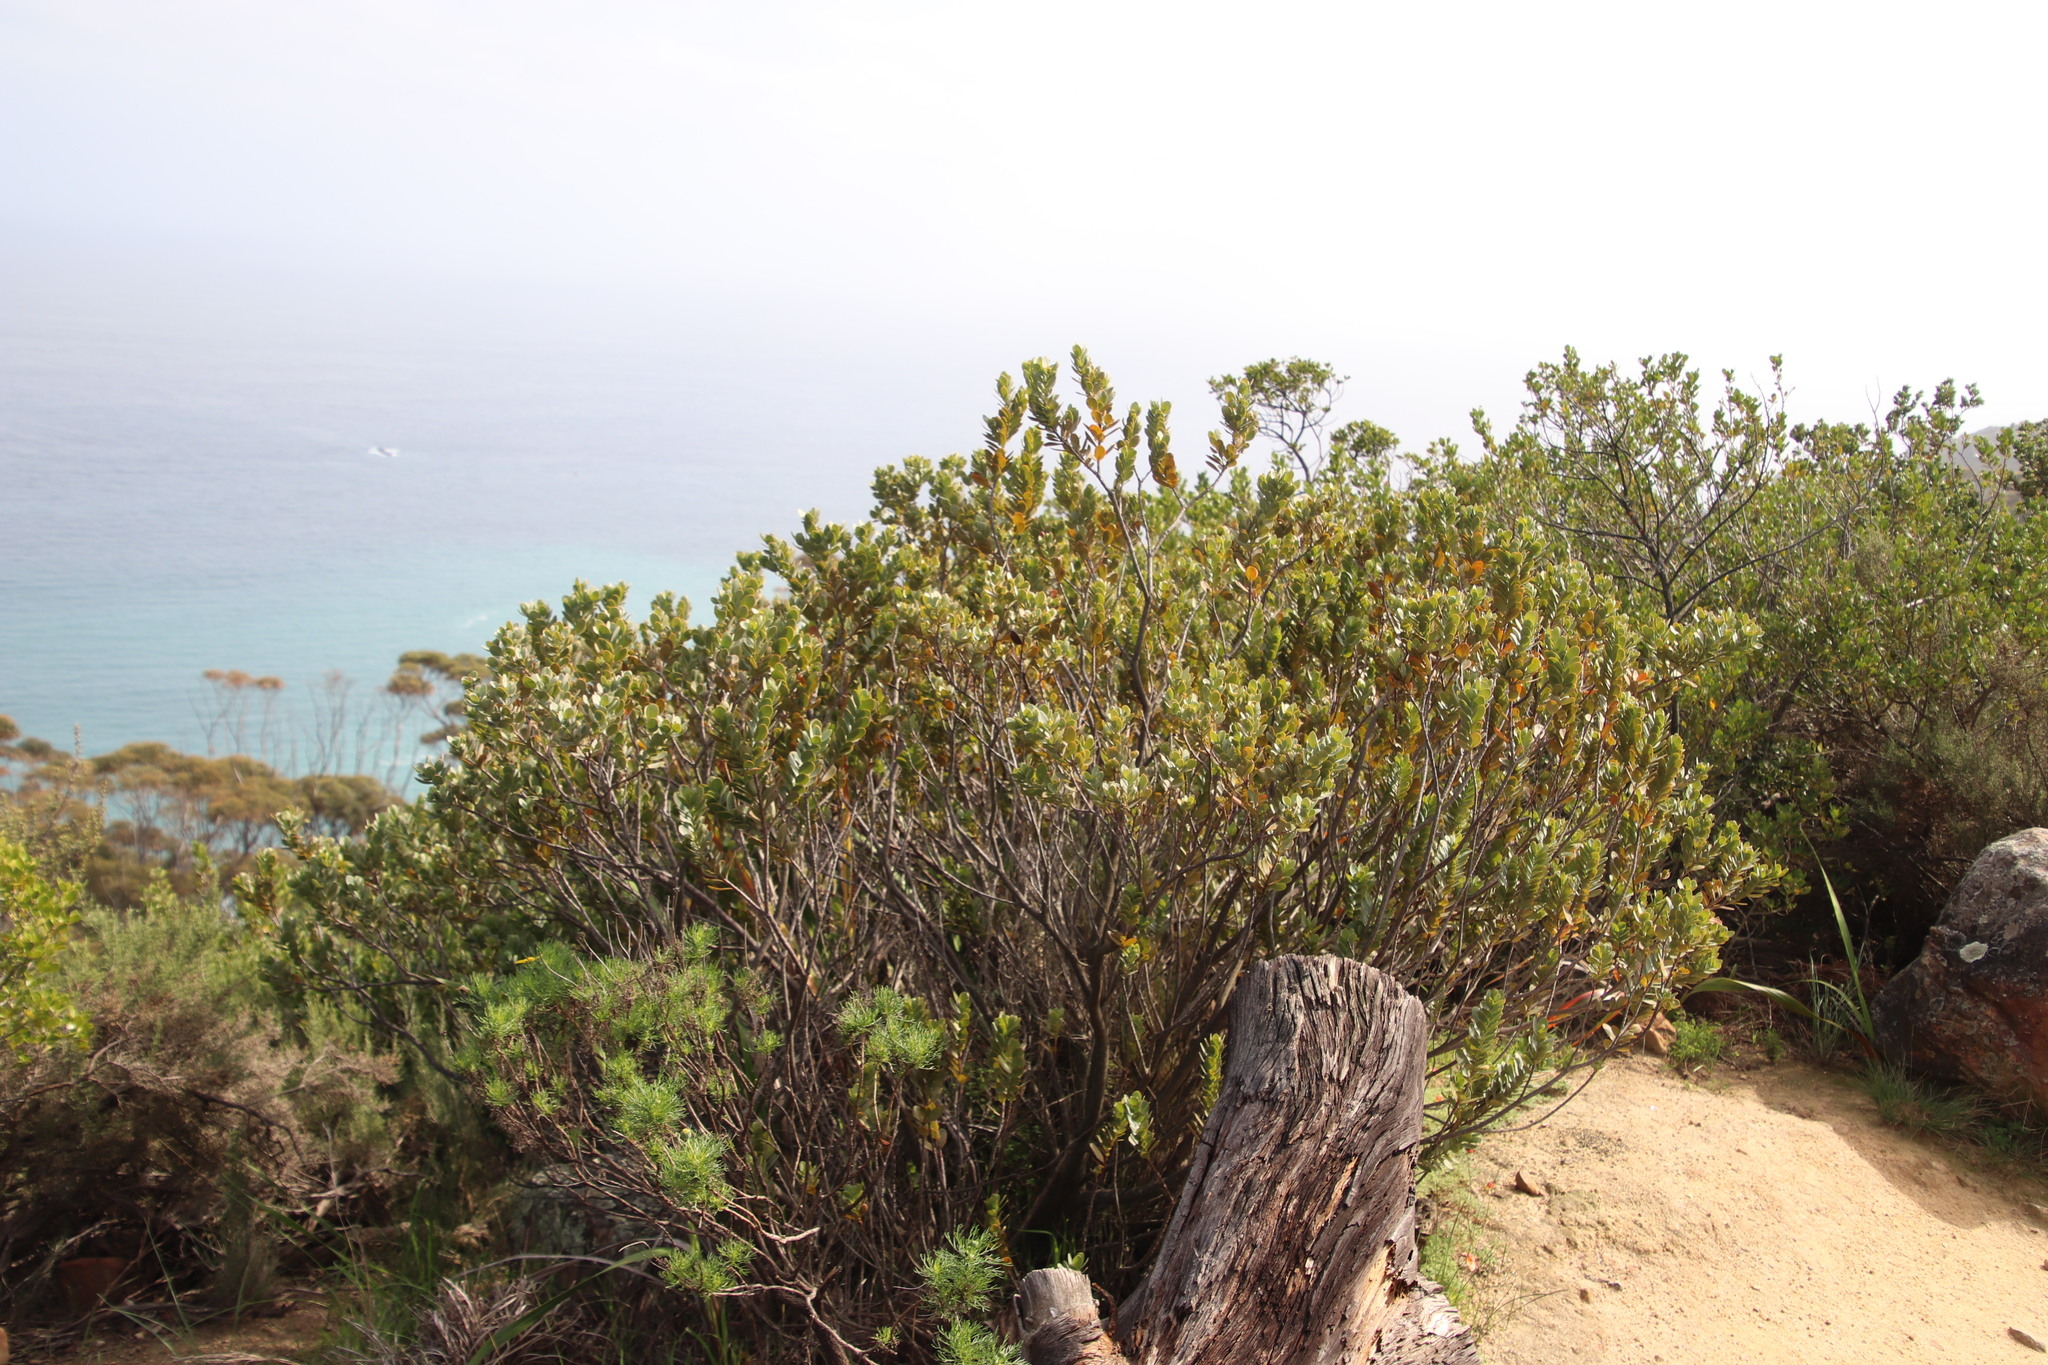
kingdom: Plantae
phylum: Tracheophyta
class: Magnoliopsida
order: Santalales
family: Santalaceae
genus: Osyris
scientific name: Osyris compressa
